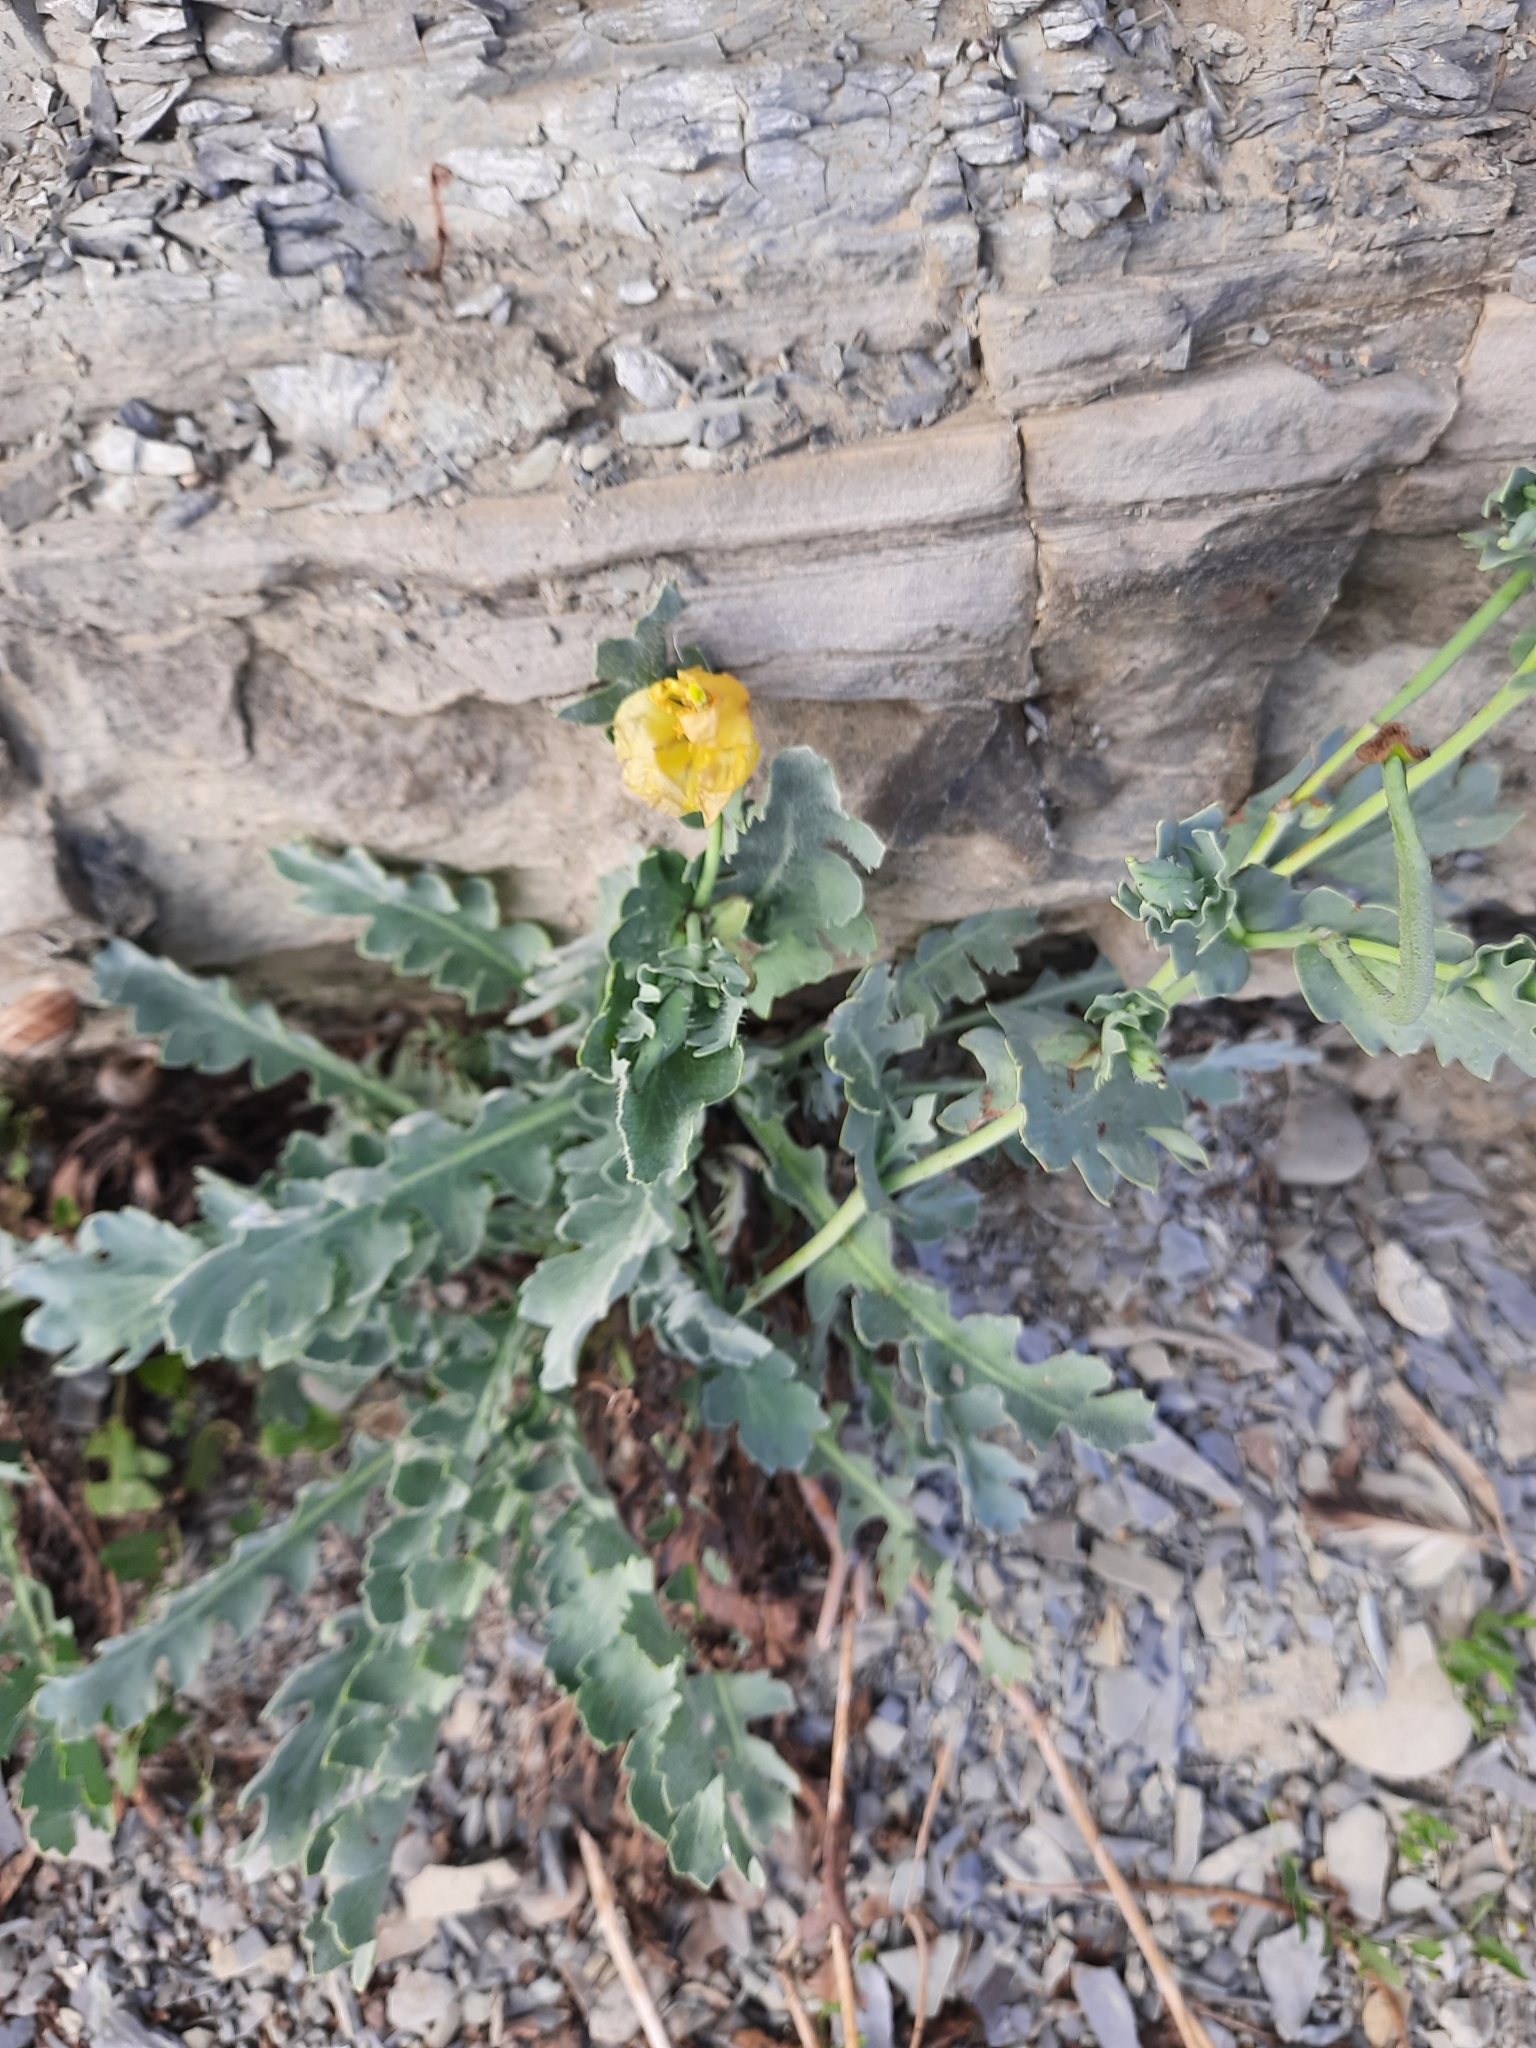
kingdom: Plantae
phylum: Tracheophyta
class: Magnoliopsida
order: Ranunculales
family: Papaveraceae
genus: Glaucium
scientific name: Glaucium flavum
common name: Yellow horned-poppy
